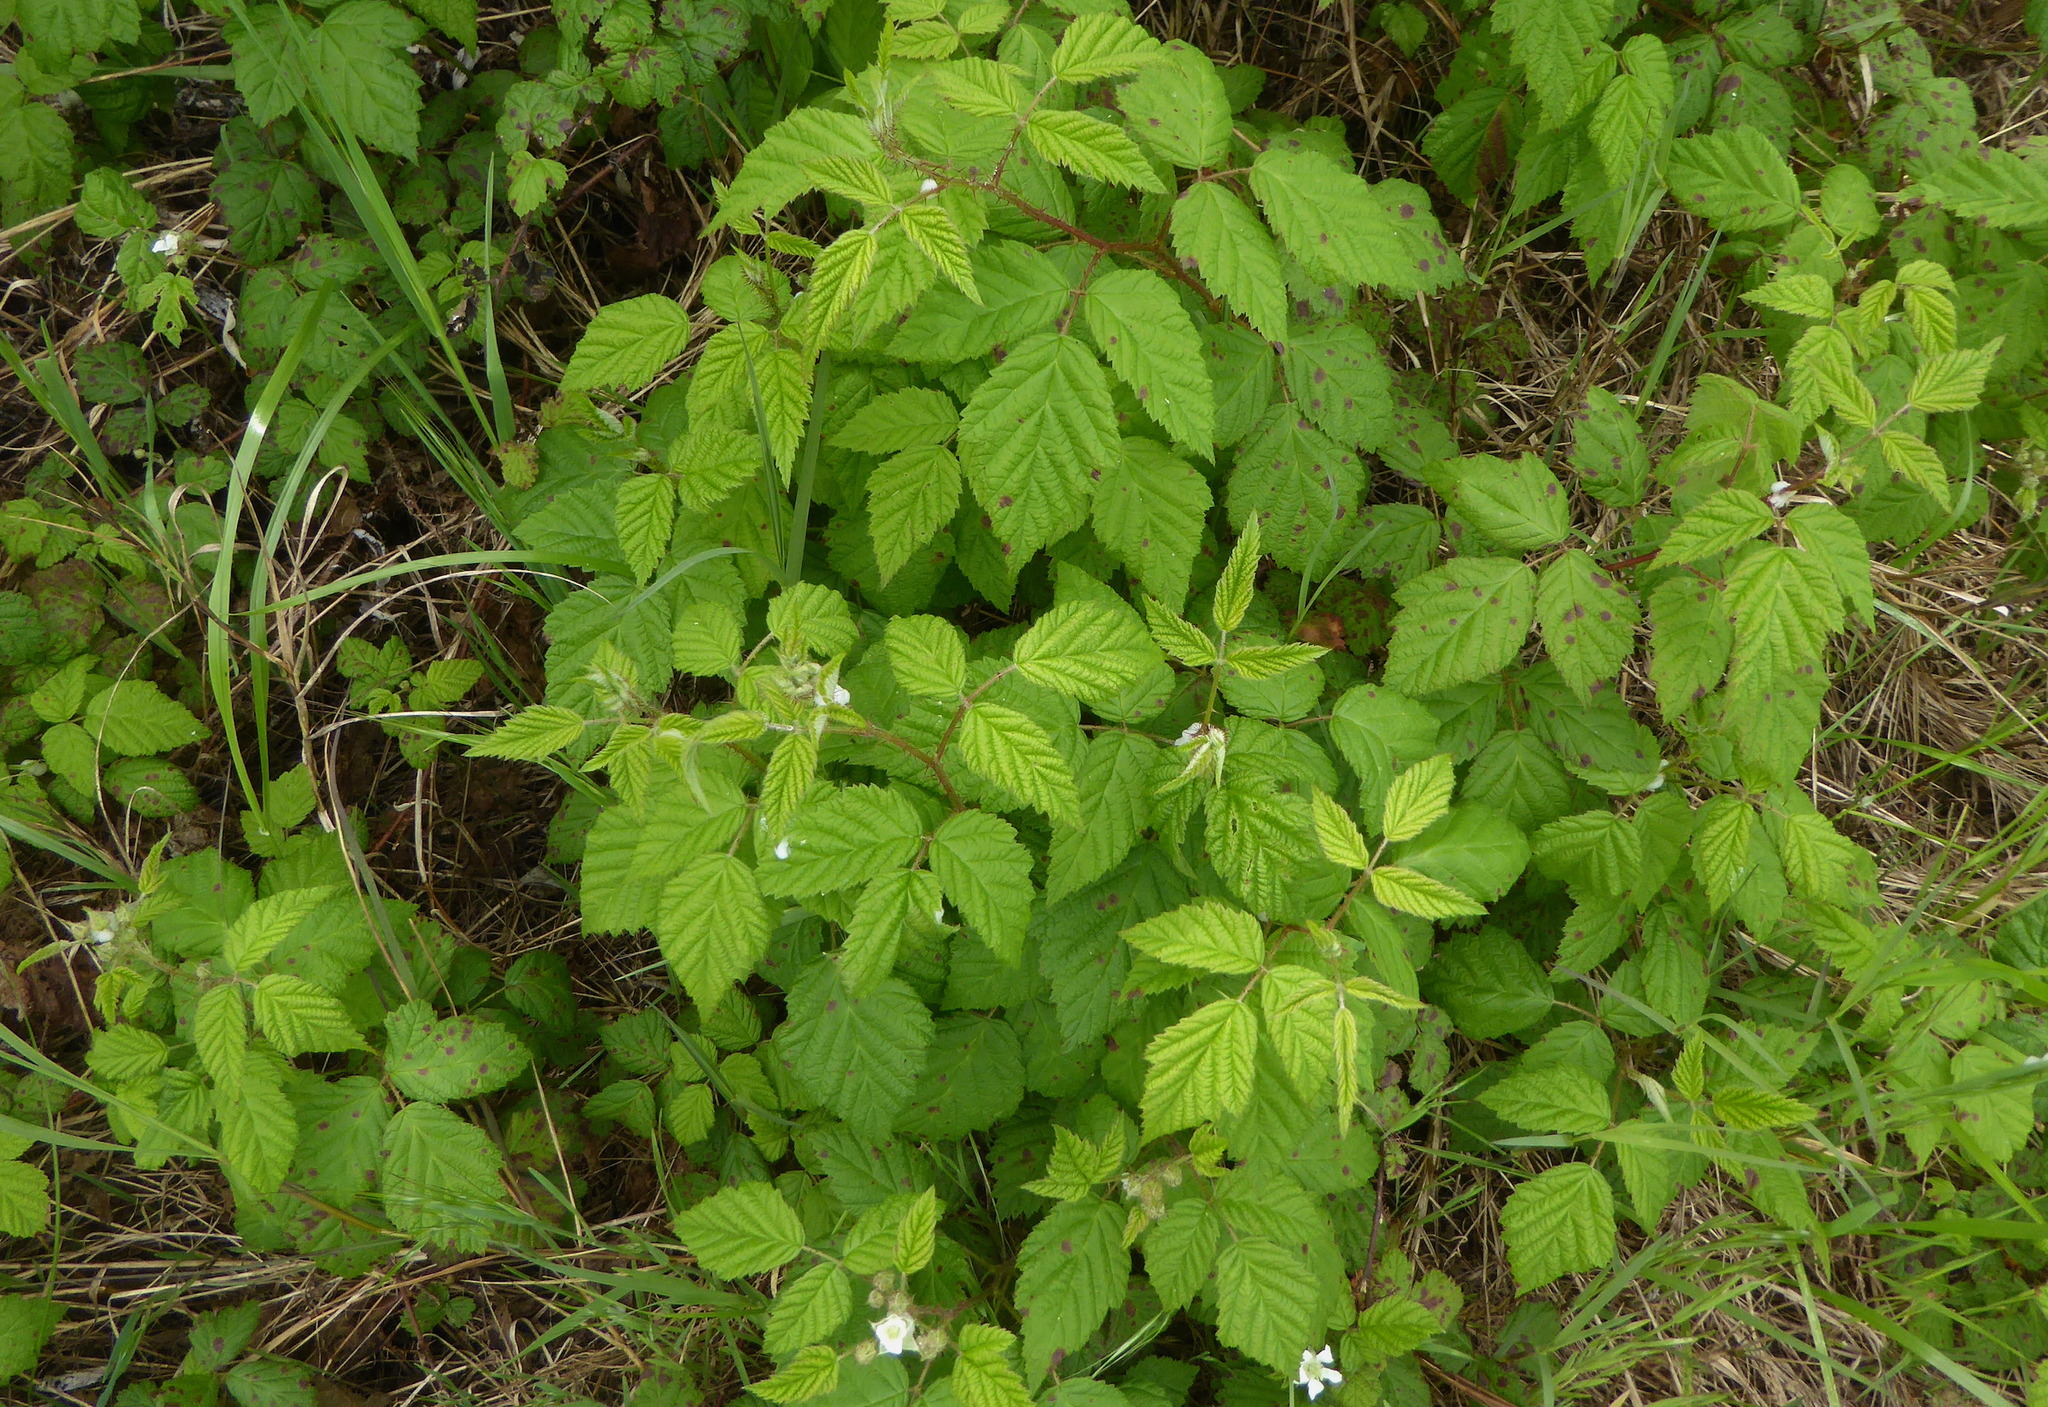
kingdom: Plantae
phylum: Tracheophyta
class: Magnoliopsida
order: Rosales
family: Rosaceae
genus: Rubus
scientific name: Rubus ursinus
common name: Pacific blackberry
